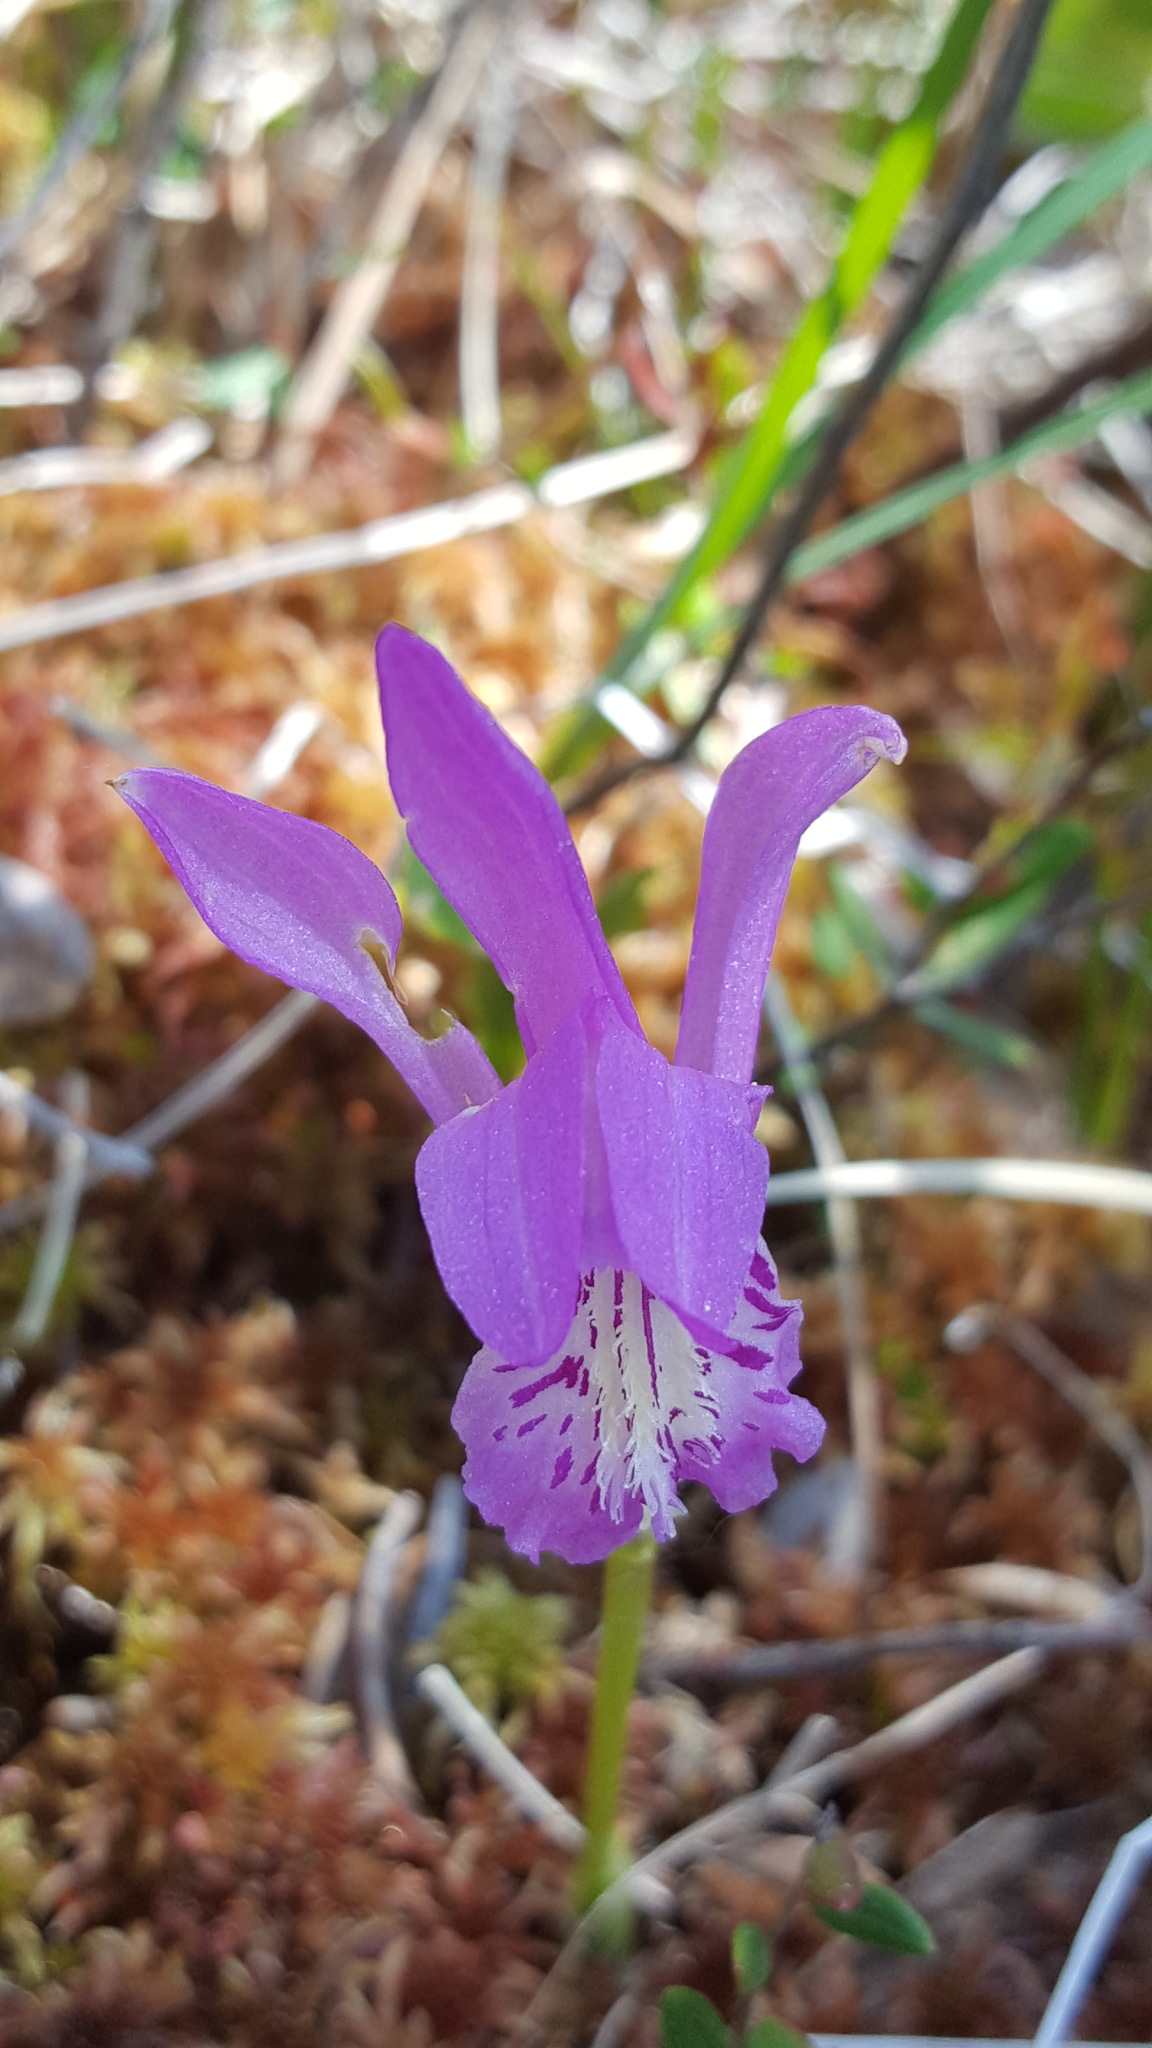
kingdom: Plantae
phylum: Tracheophyta
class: Liliopsida
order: Asparagales
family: Orchidaceae
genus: Arethusa
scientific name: Arethusa bulbosa
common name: Arethusa
